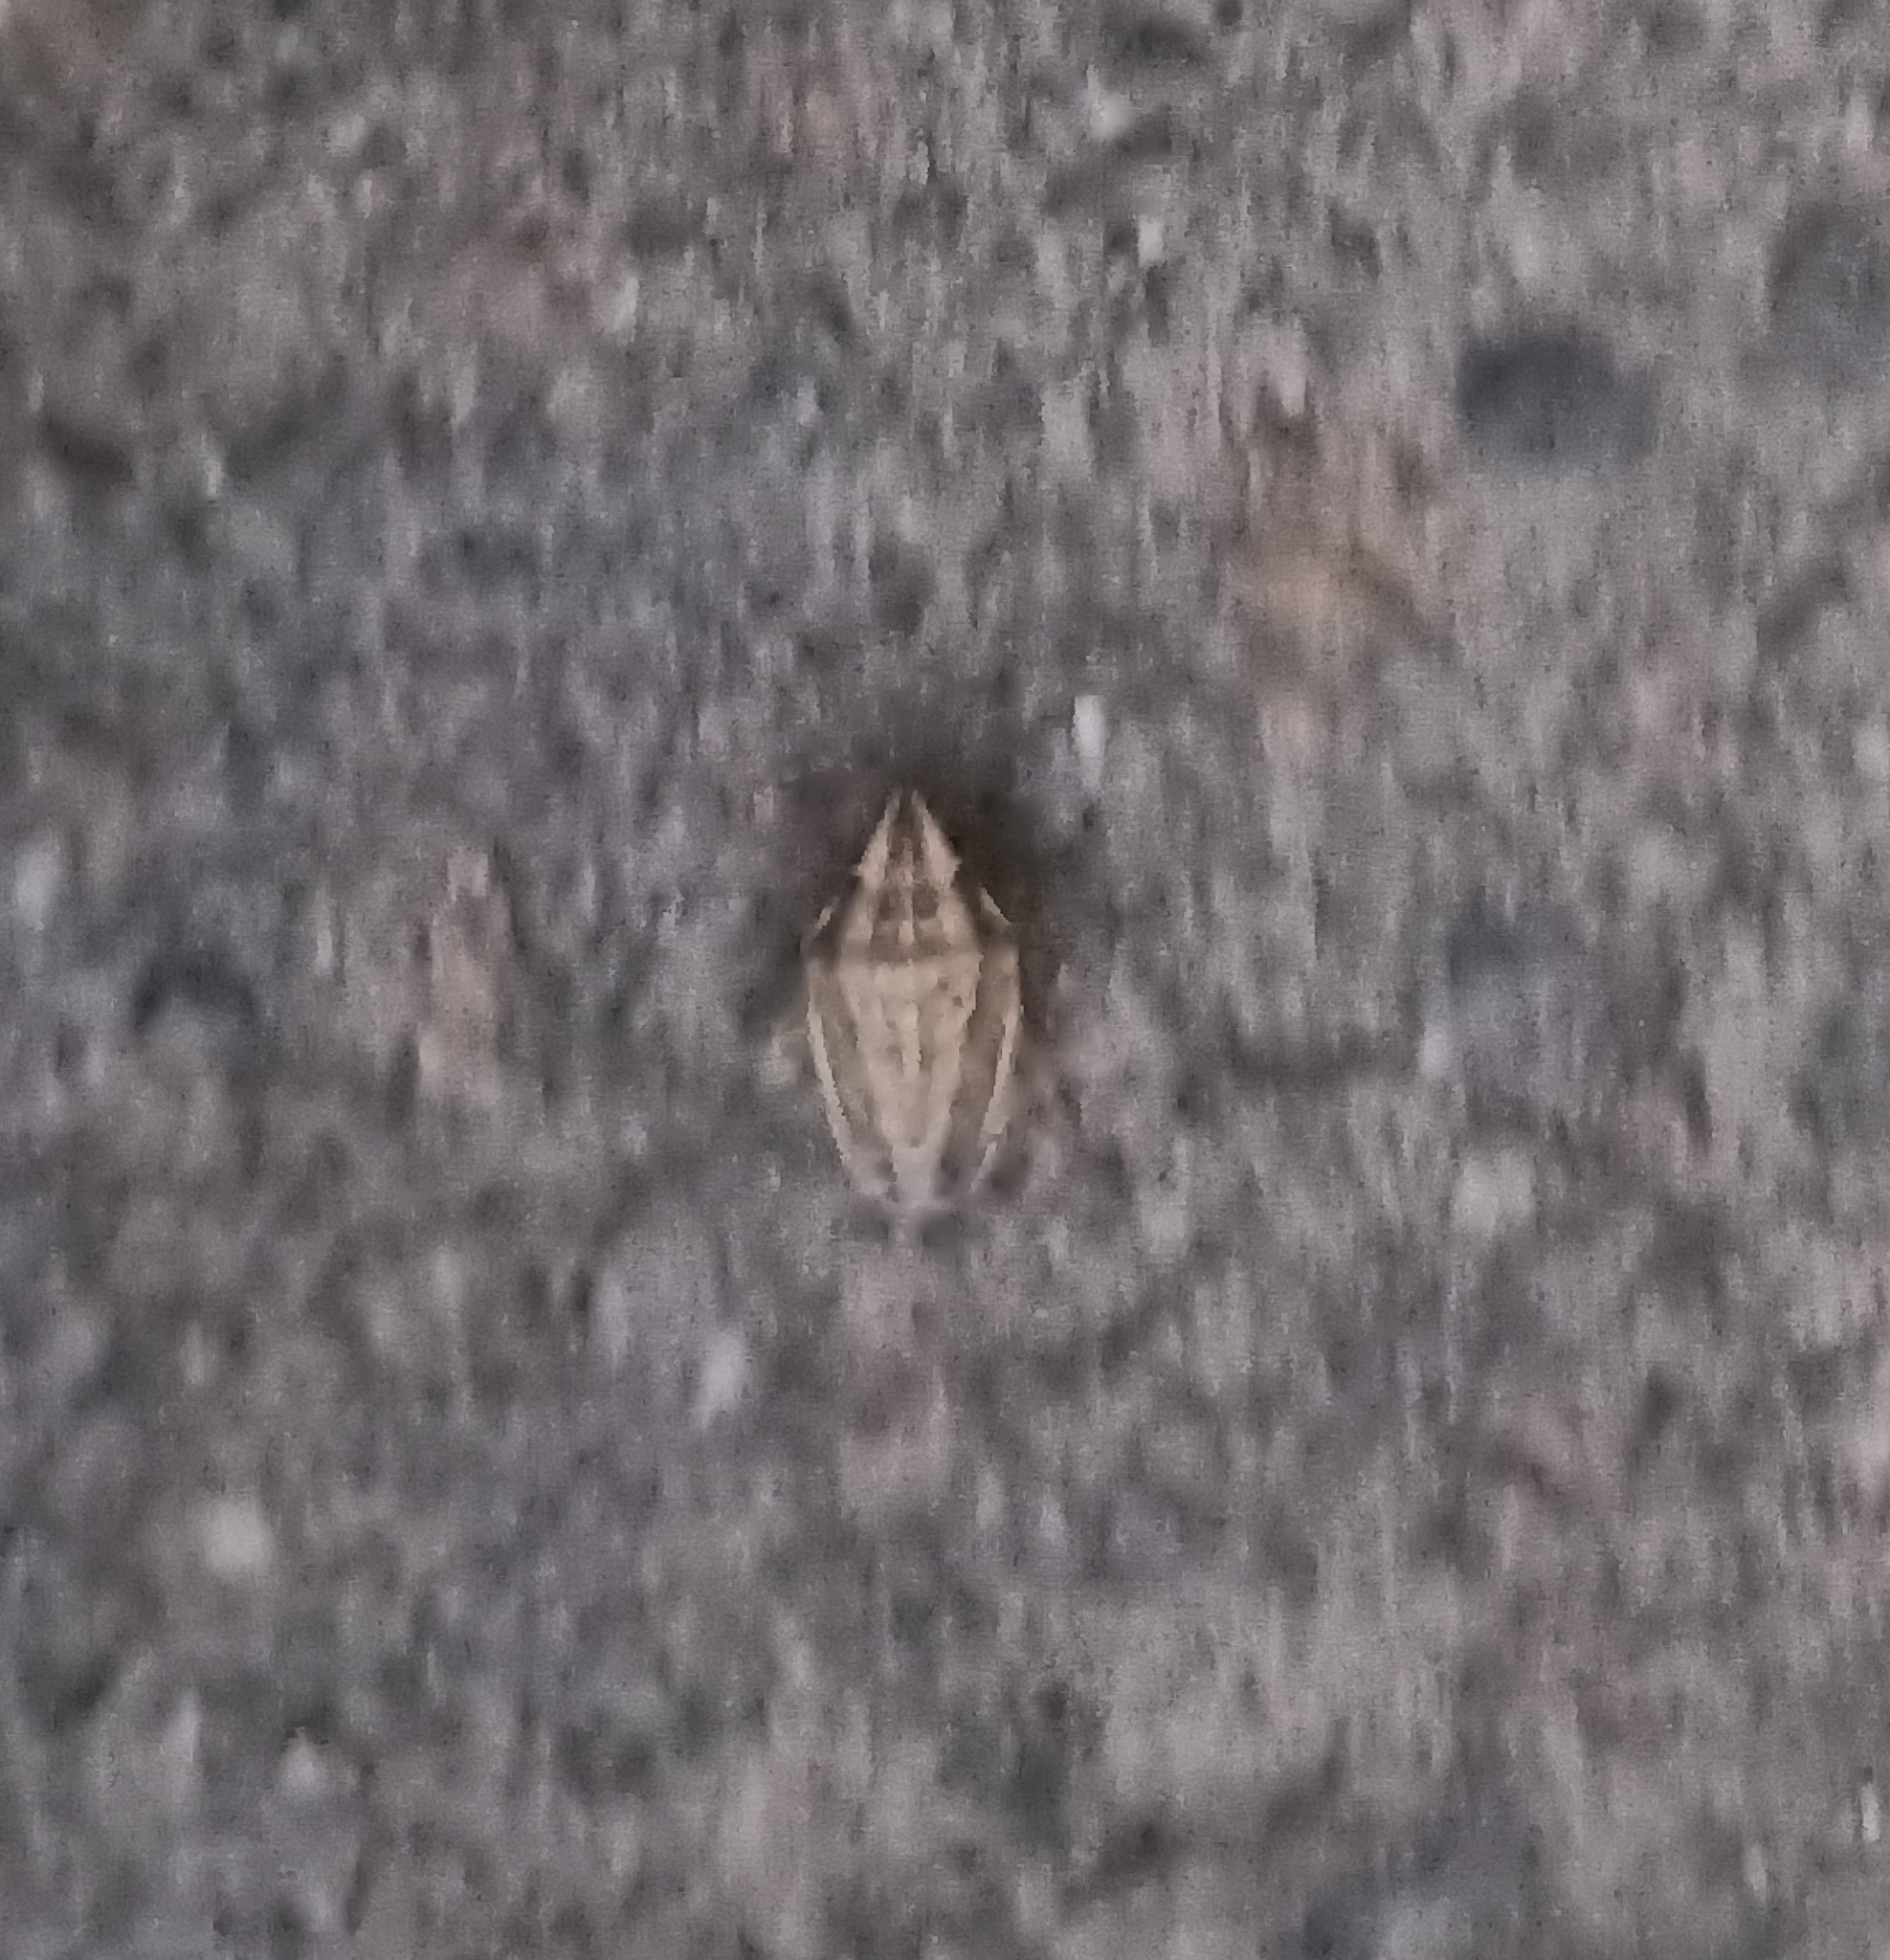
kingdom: Animalia
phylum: Arthropoda
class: Insecta
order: Hemiptera
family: Pentatomidae
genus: Aelia
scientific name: Aelia acuminata
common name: Bishop's mitre
